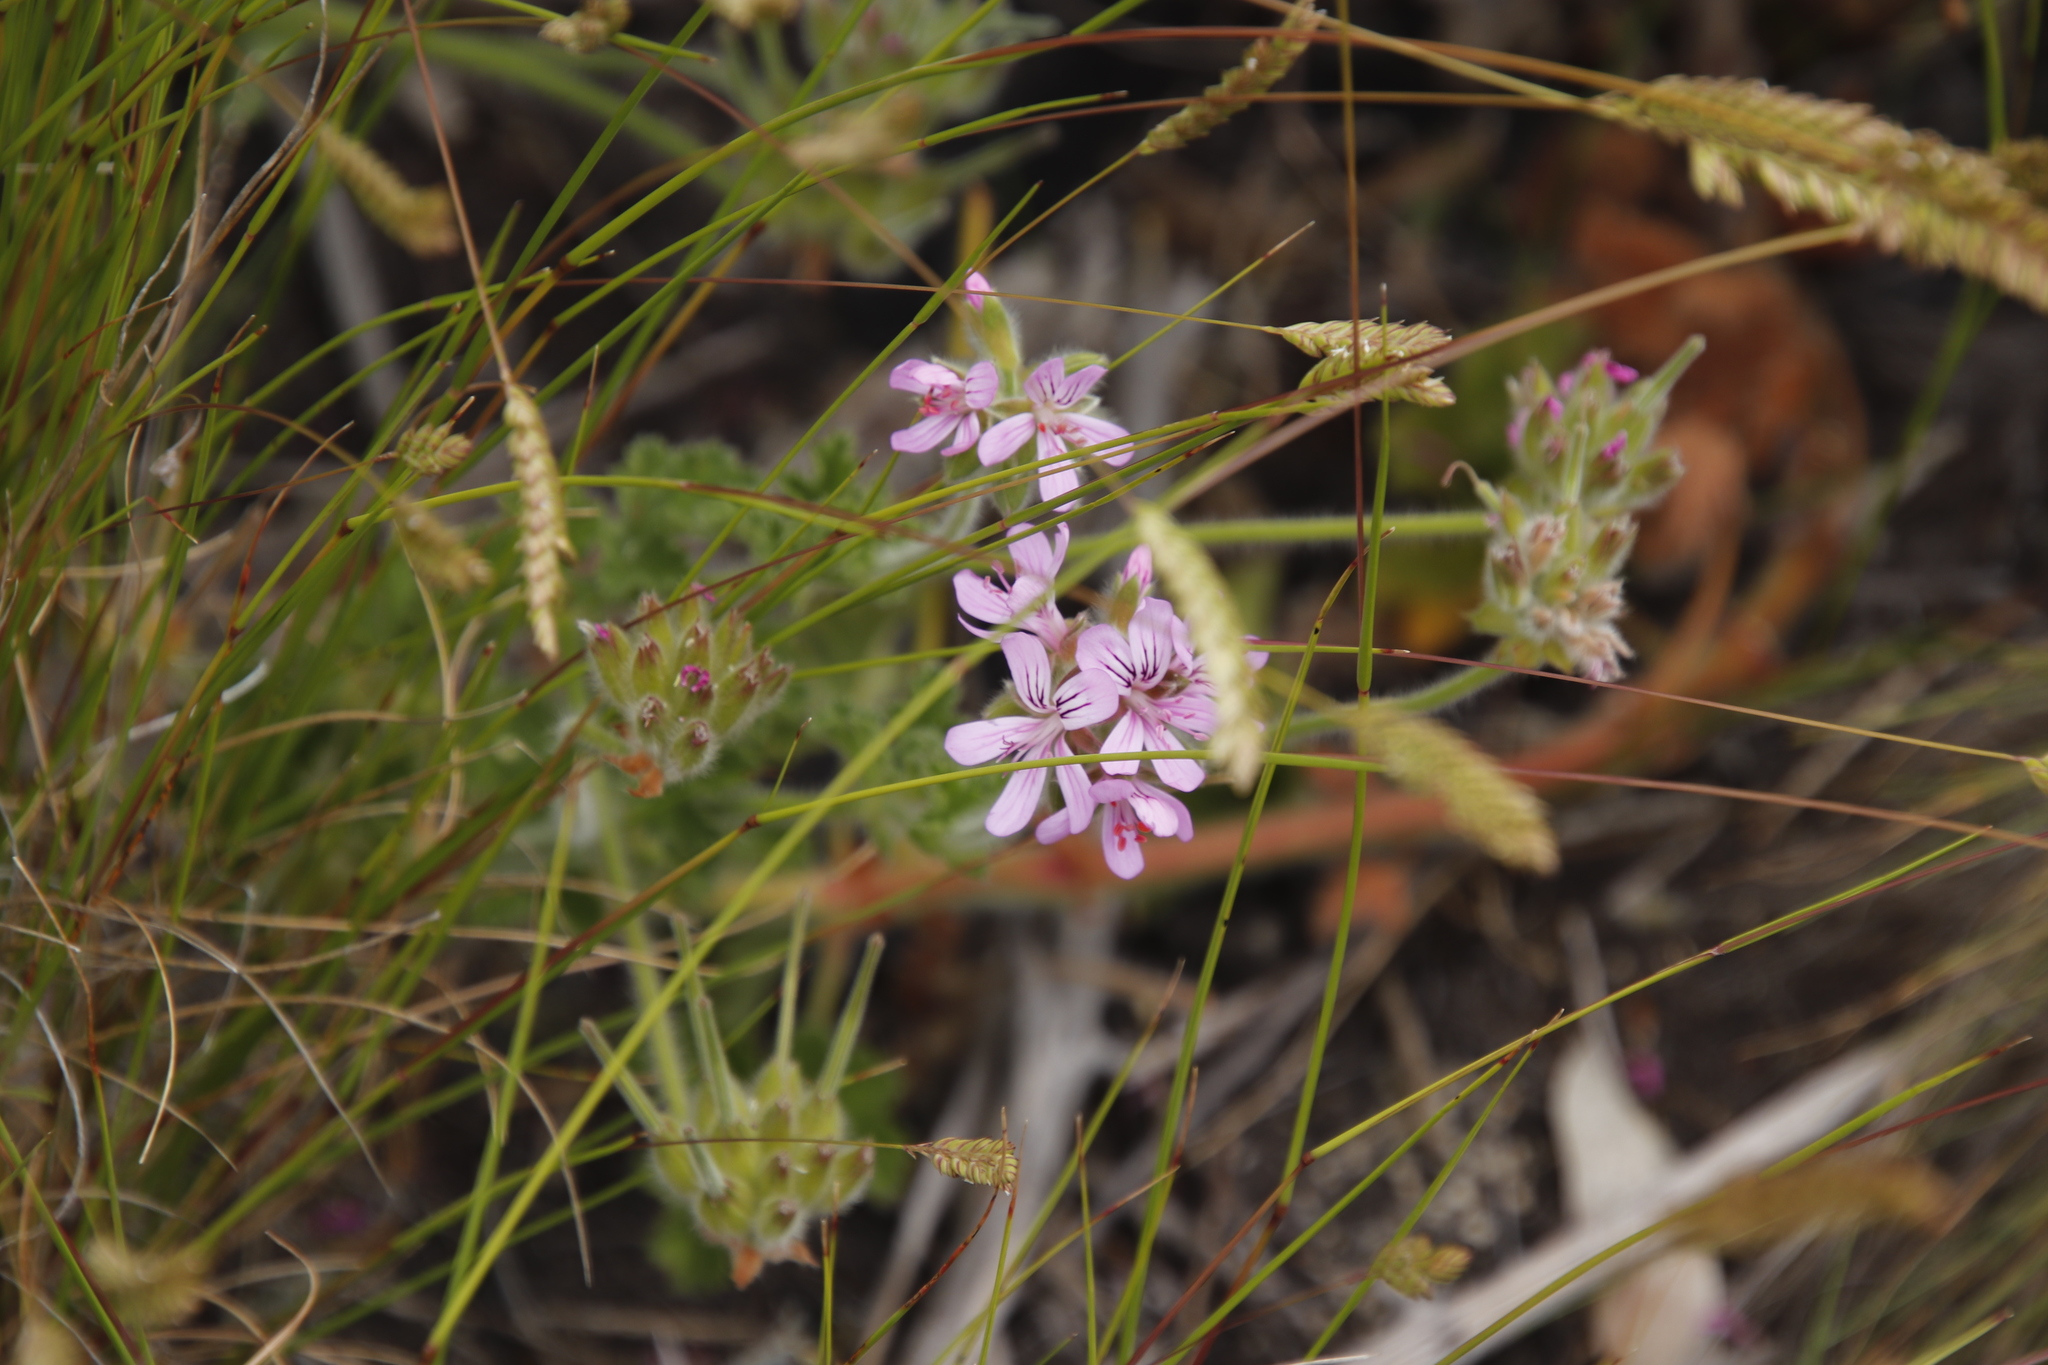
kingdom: Plantae
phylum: Tracheophyta
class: Magnoliopsida
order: Geraniales
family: Geraniaceae
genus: Pelargonium
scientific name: Pelargonium capitatum
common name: Rose scented geranium
